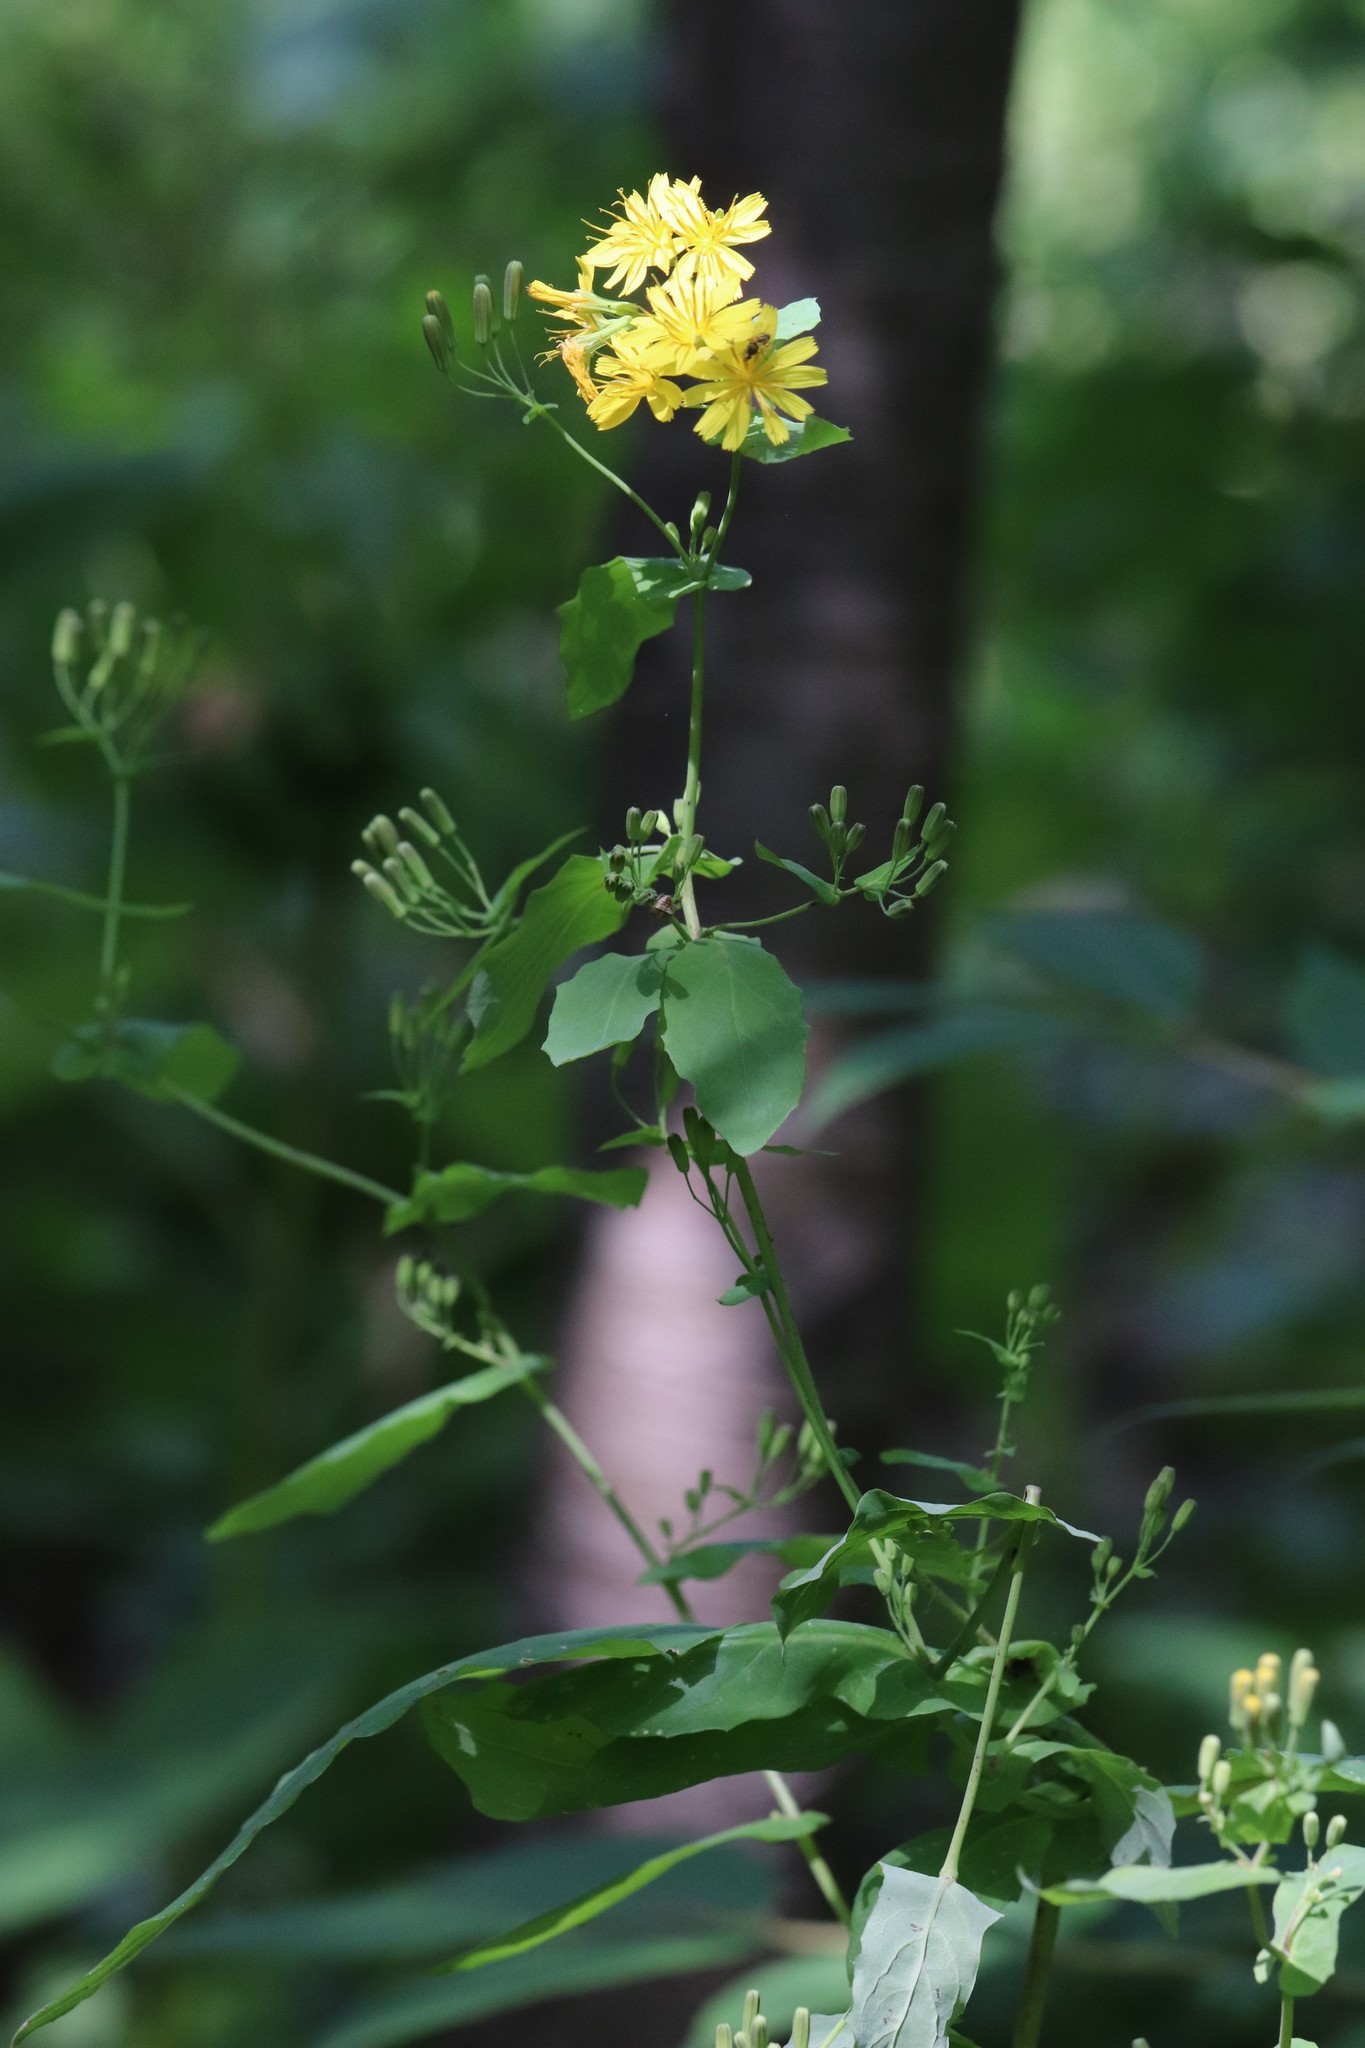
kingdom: Plantae
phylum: Tracheophyta
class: Magnoliopsida
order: Asterales
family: Asteraceae
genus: Crepidiastrum
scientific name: Crepidiastrum denticulatum
